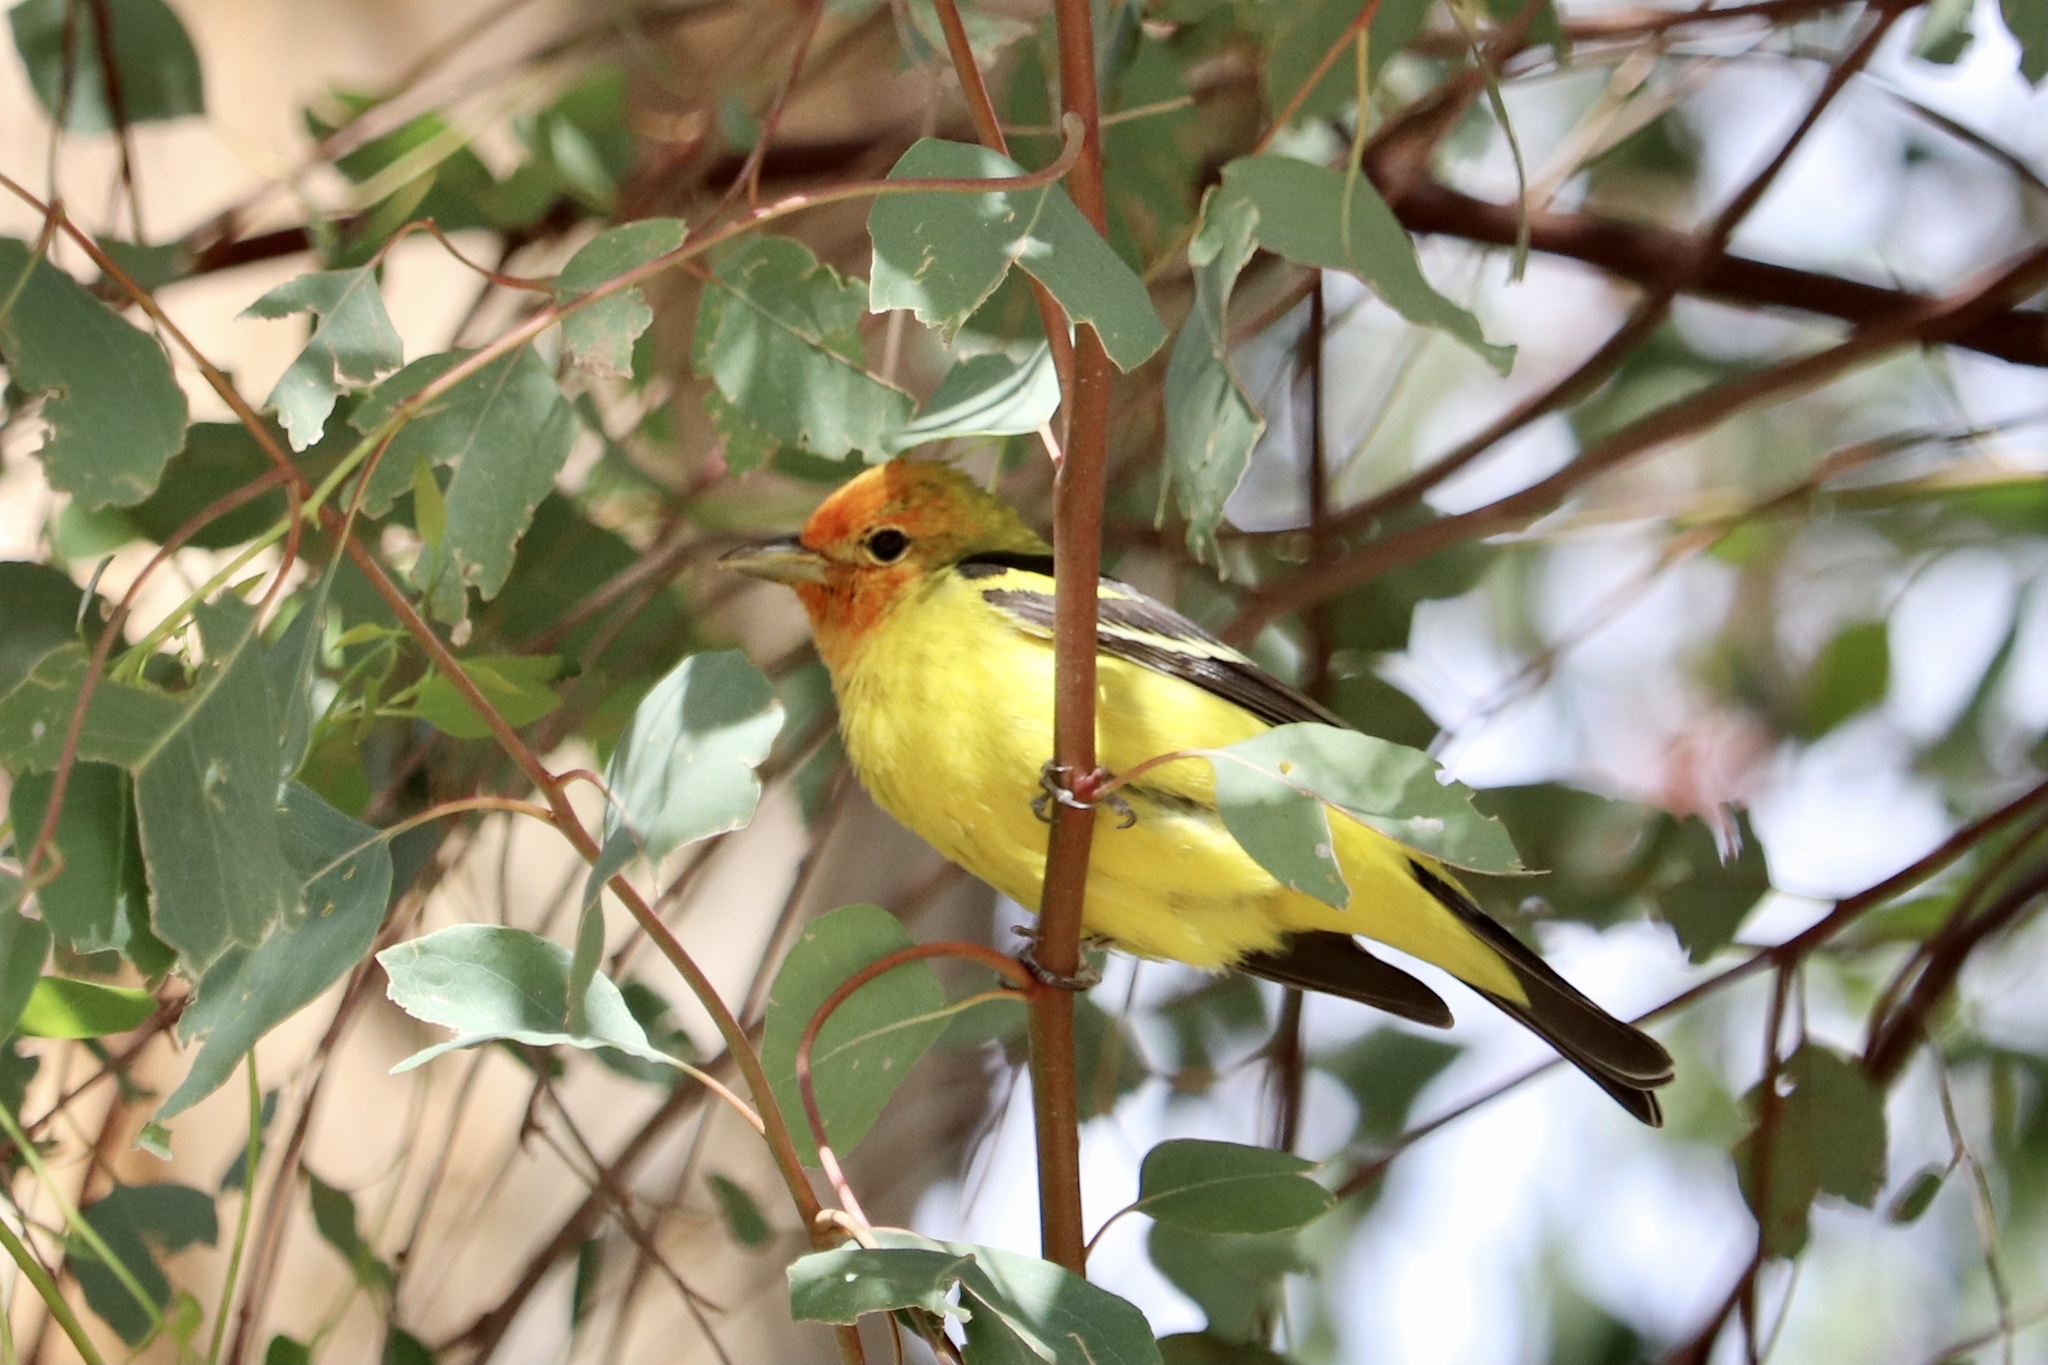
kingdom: Animalia
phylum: Chordata
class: Aves
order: Passeriformes
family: Cardinalidae
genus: Piranga
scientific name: Piranga ludoviciana
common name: Western tanager
